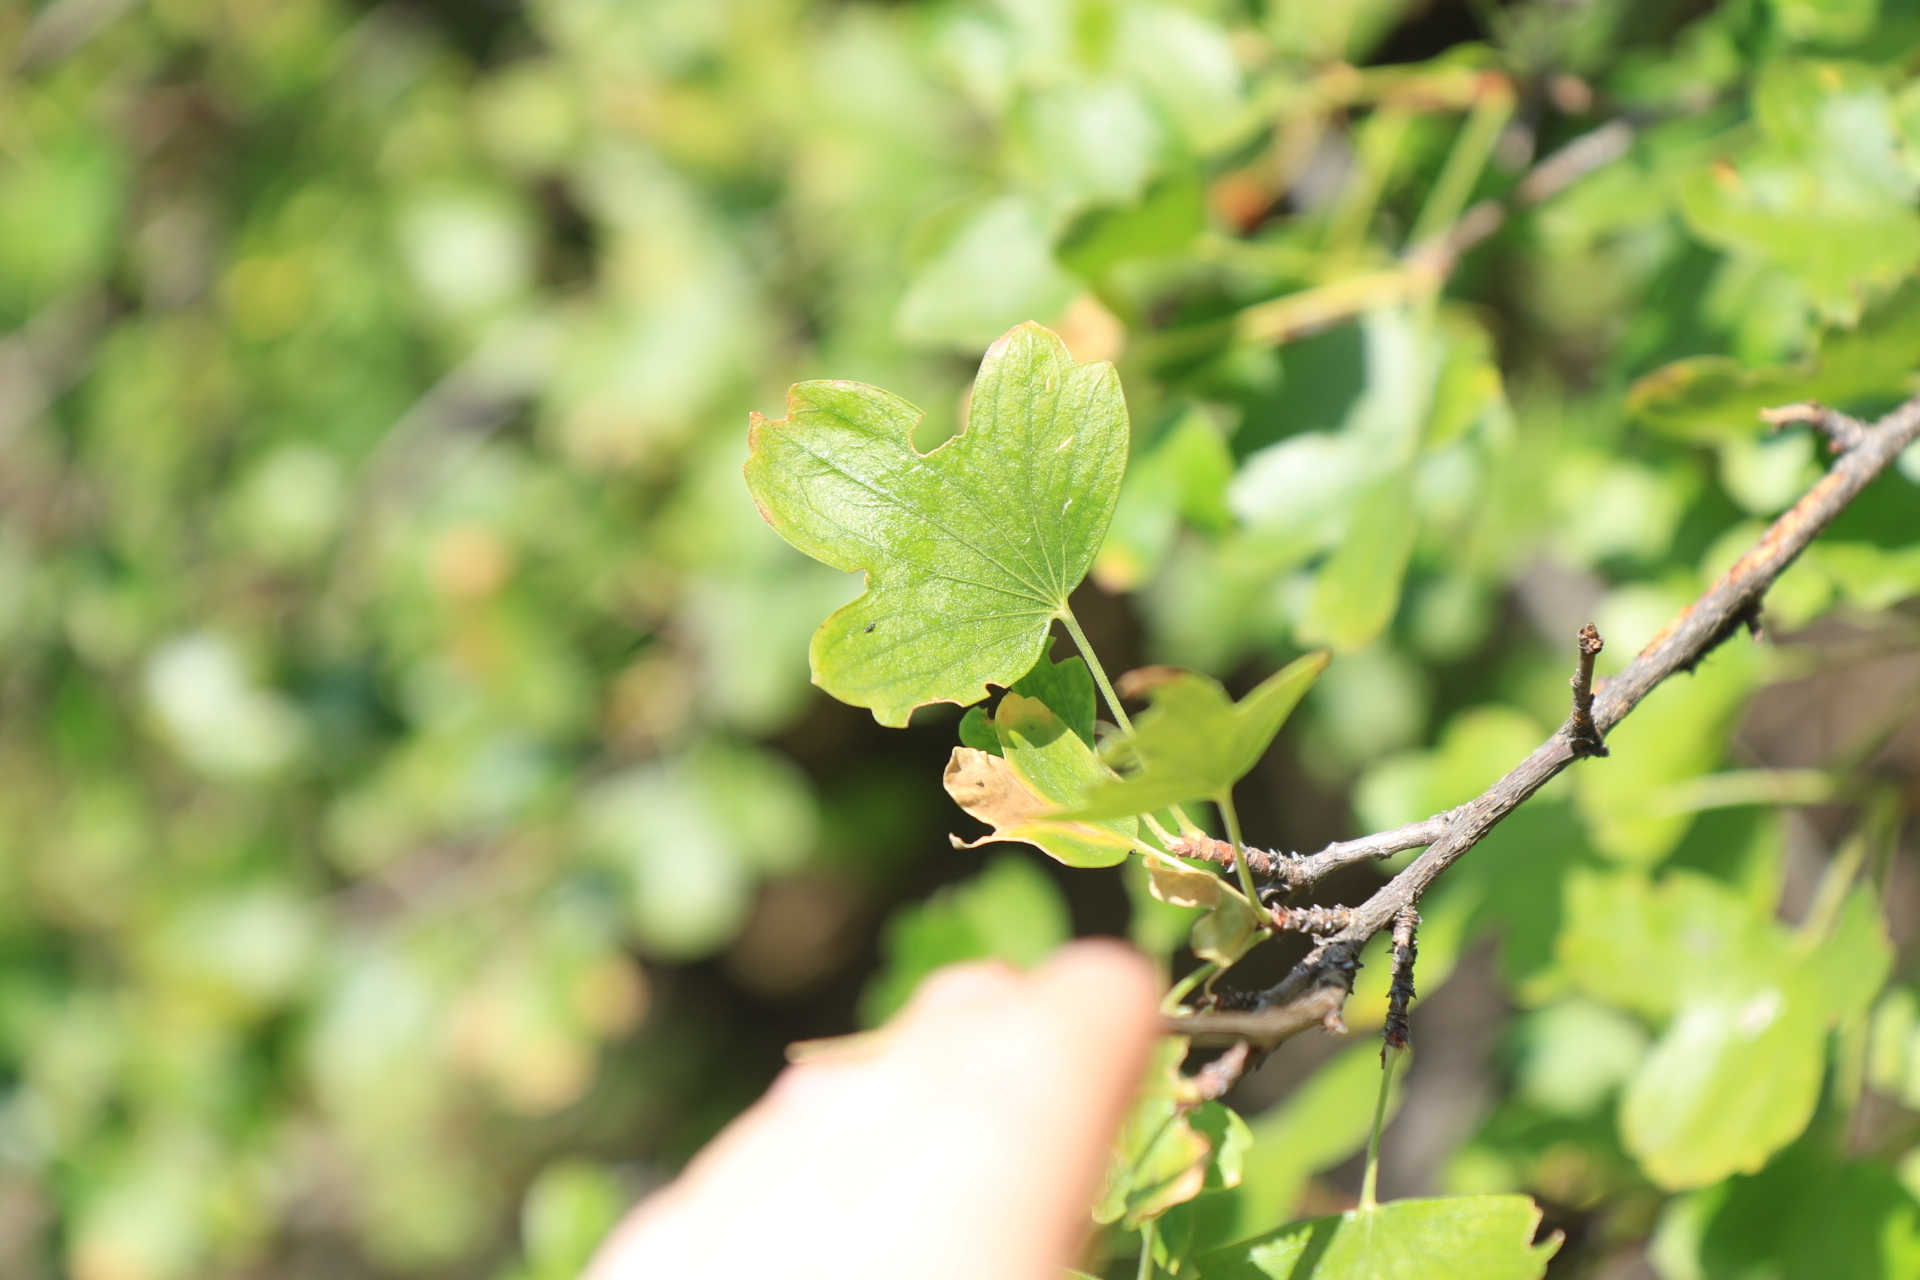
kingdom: Plantae
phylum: Tracheophyta
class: Magnoliopsida
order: Saxifragales
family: Grossulariaceae
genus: Ribes
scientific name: Ribes aureum
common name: Golden currant
